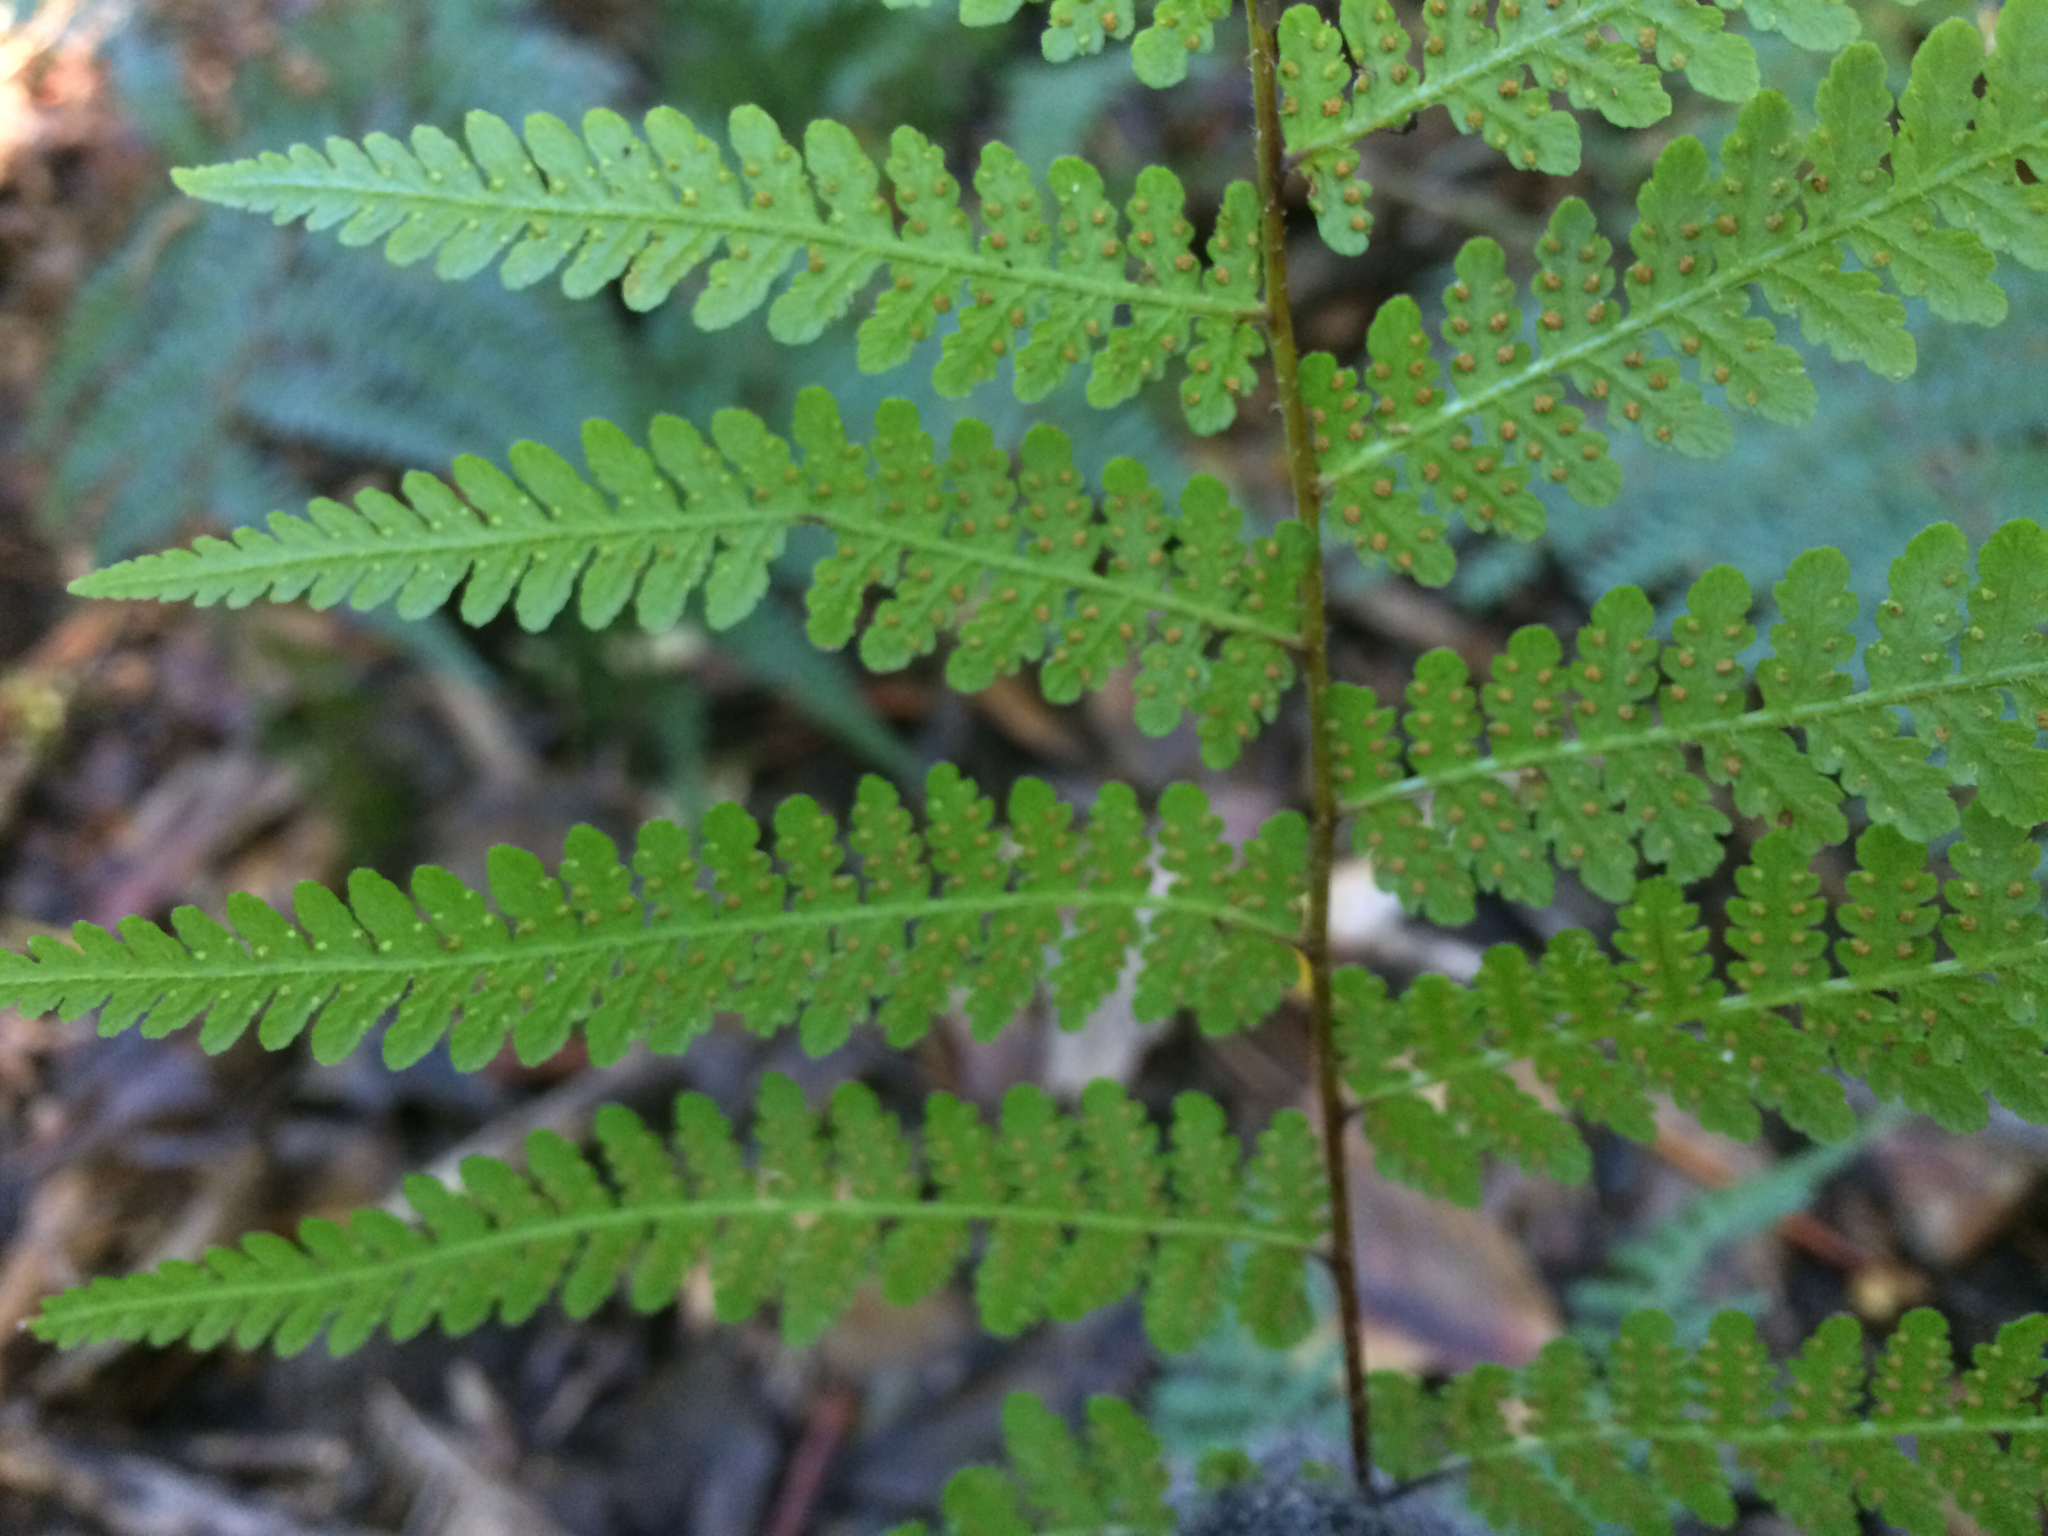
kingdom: Plantae
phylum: Tracheophyta
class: Polypodiopsida
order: Polypodiales
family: Dennstaedtiaceae
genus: Hypolepis
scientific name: Hypolepis ambigua
